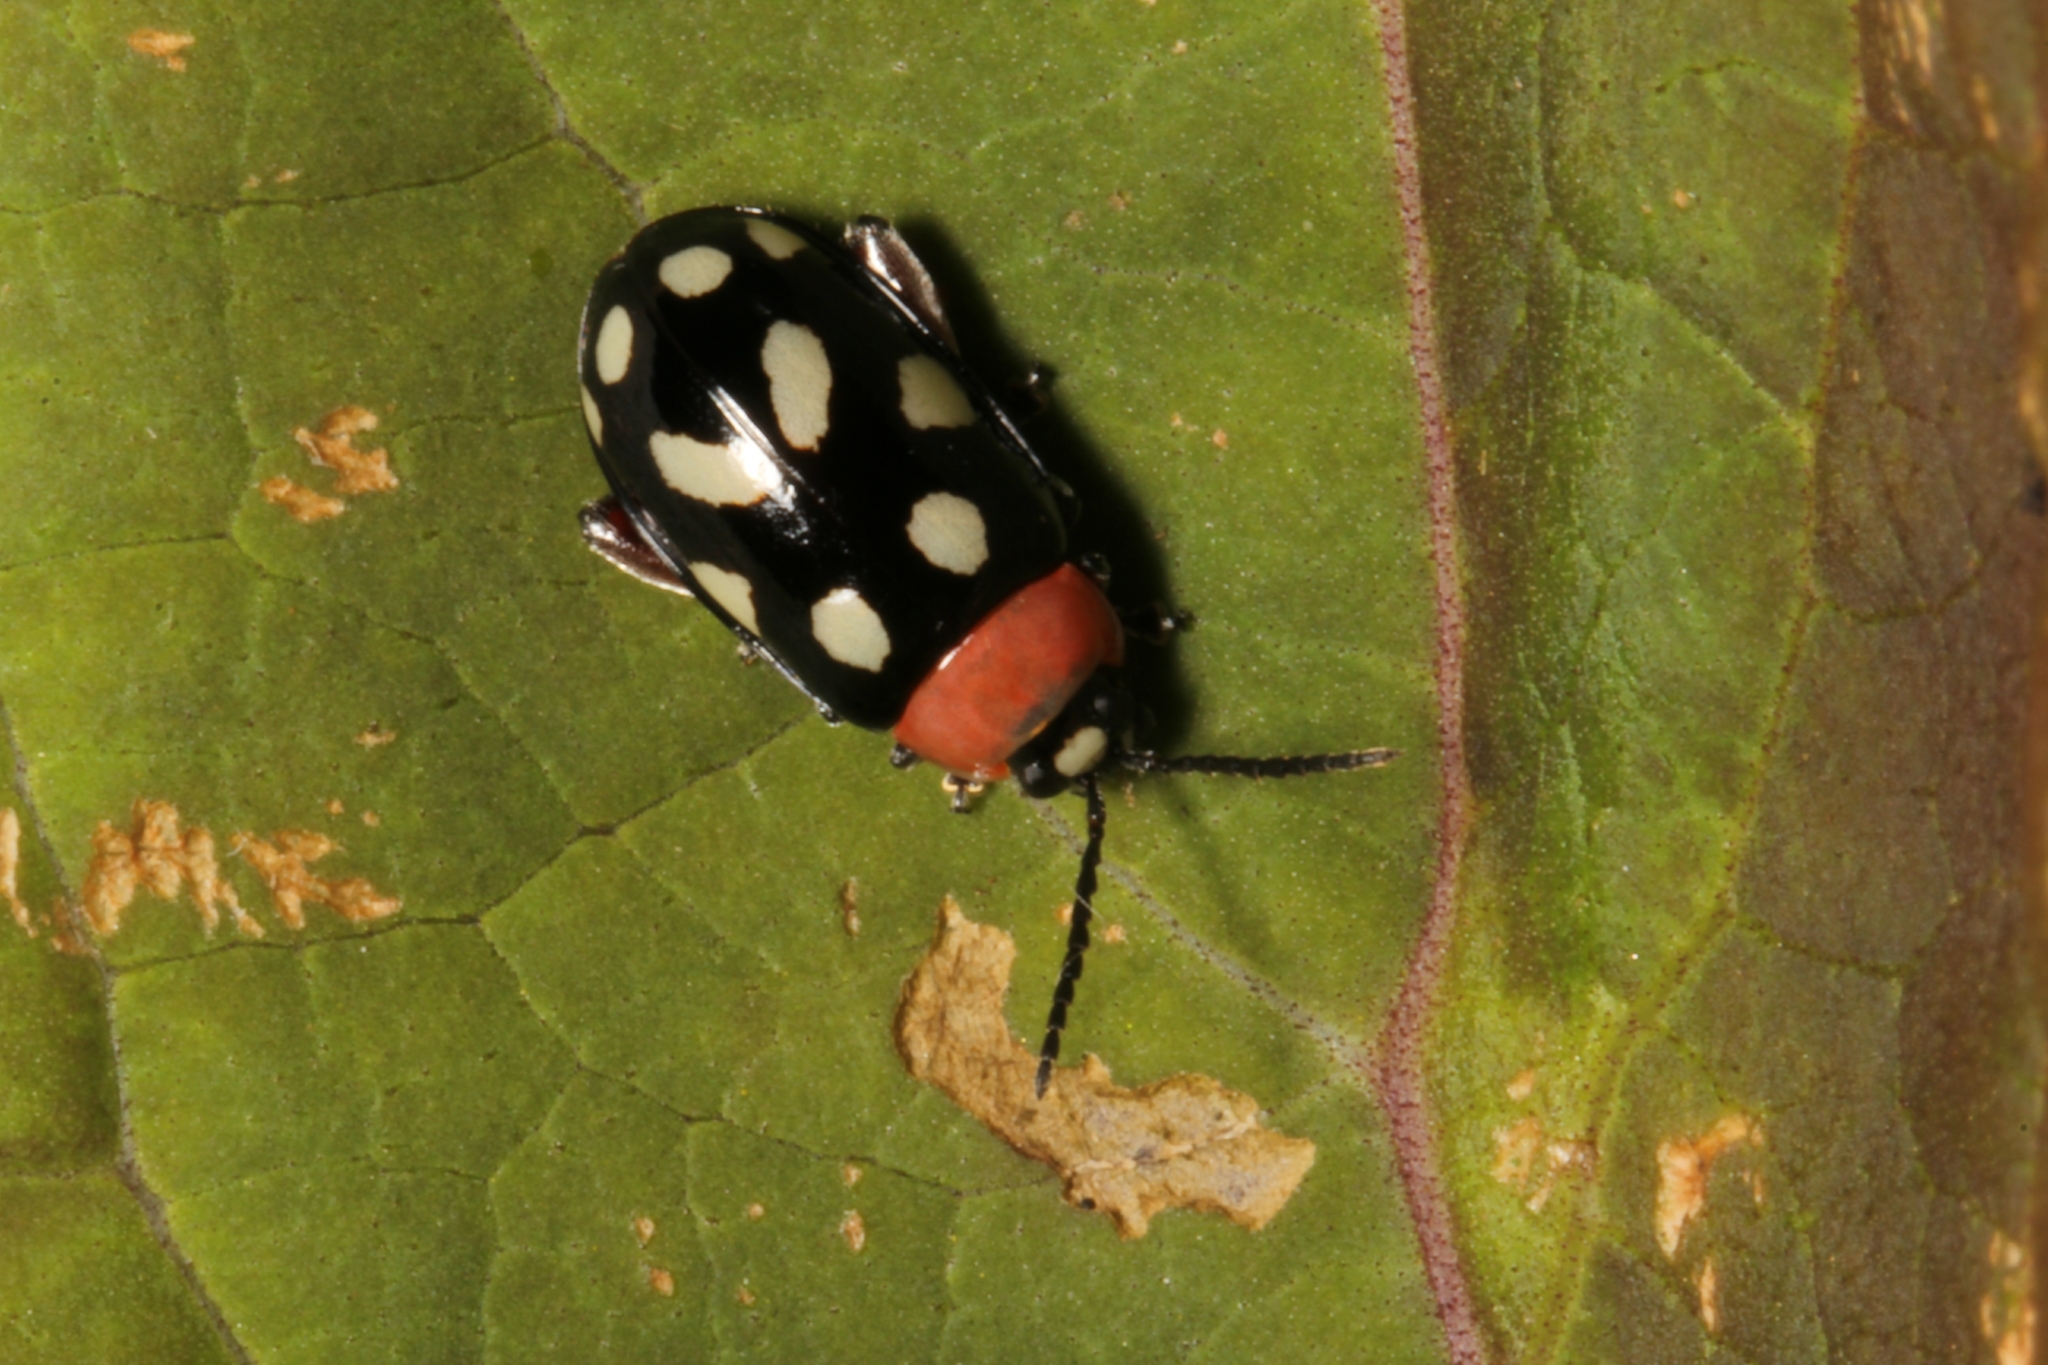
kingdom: Animalia
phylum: Arthropoda
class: Insecta
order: Coleoptera
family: Chrysomelidae
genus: Omophoita
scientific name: Omophoita
